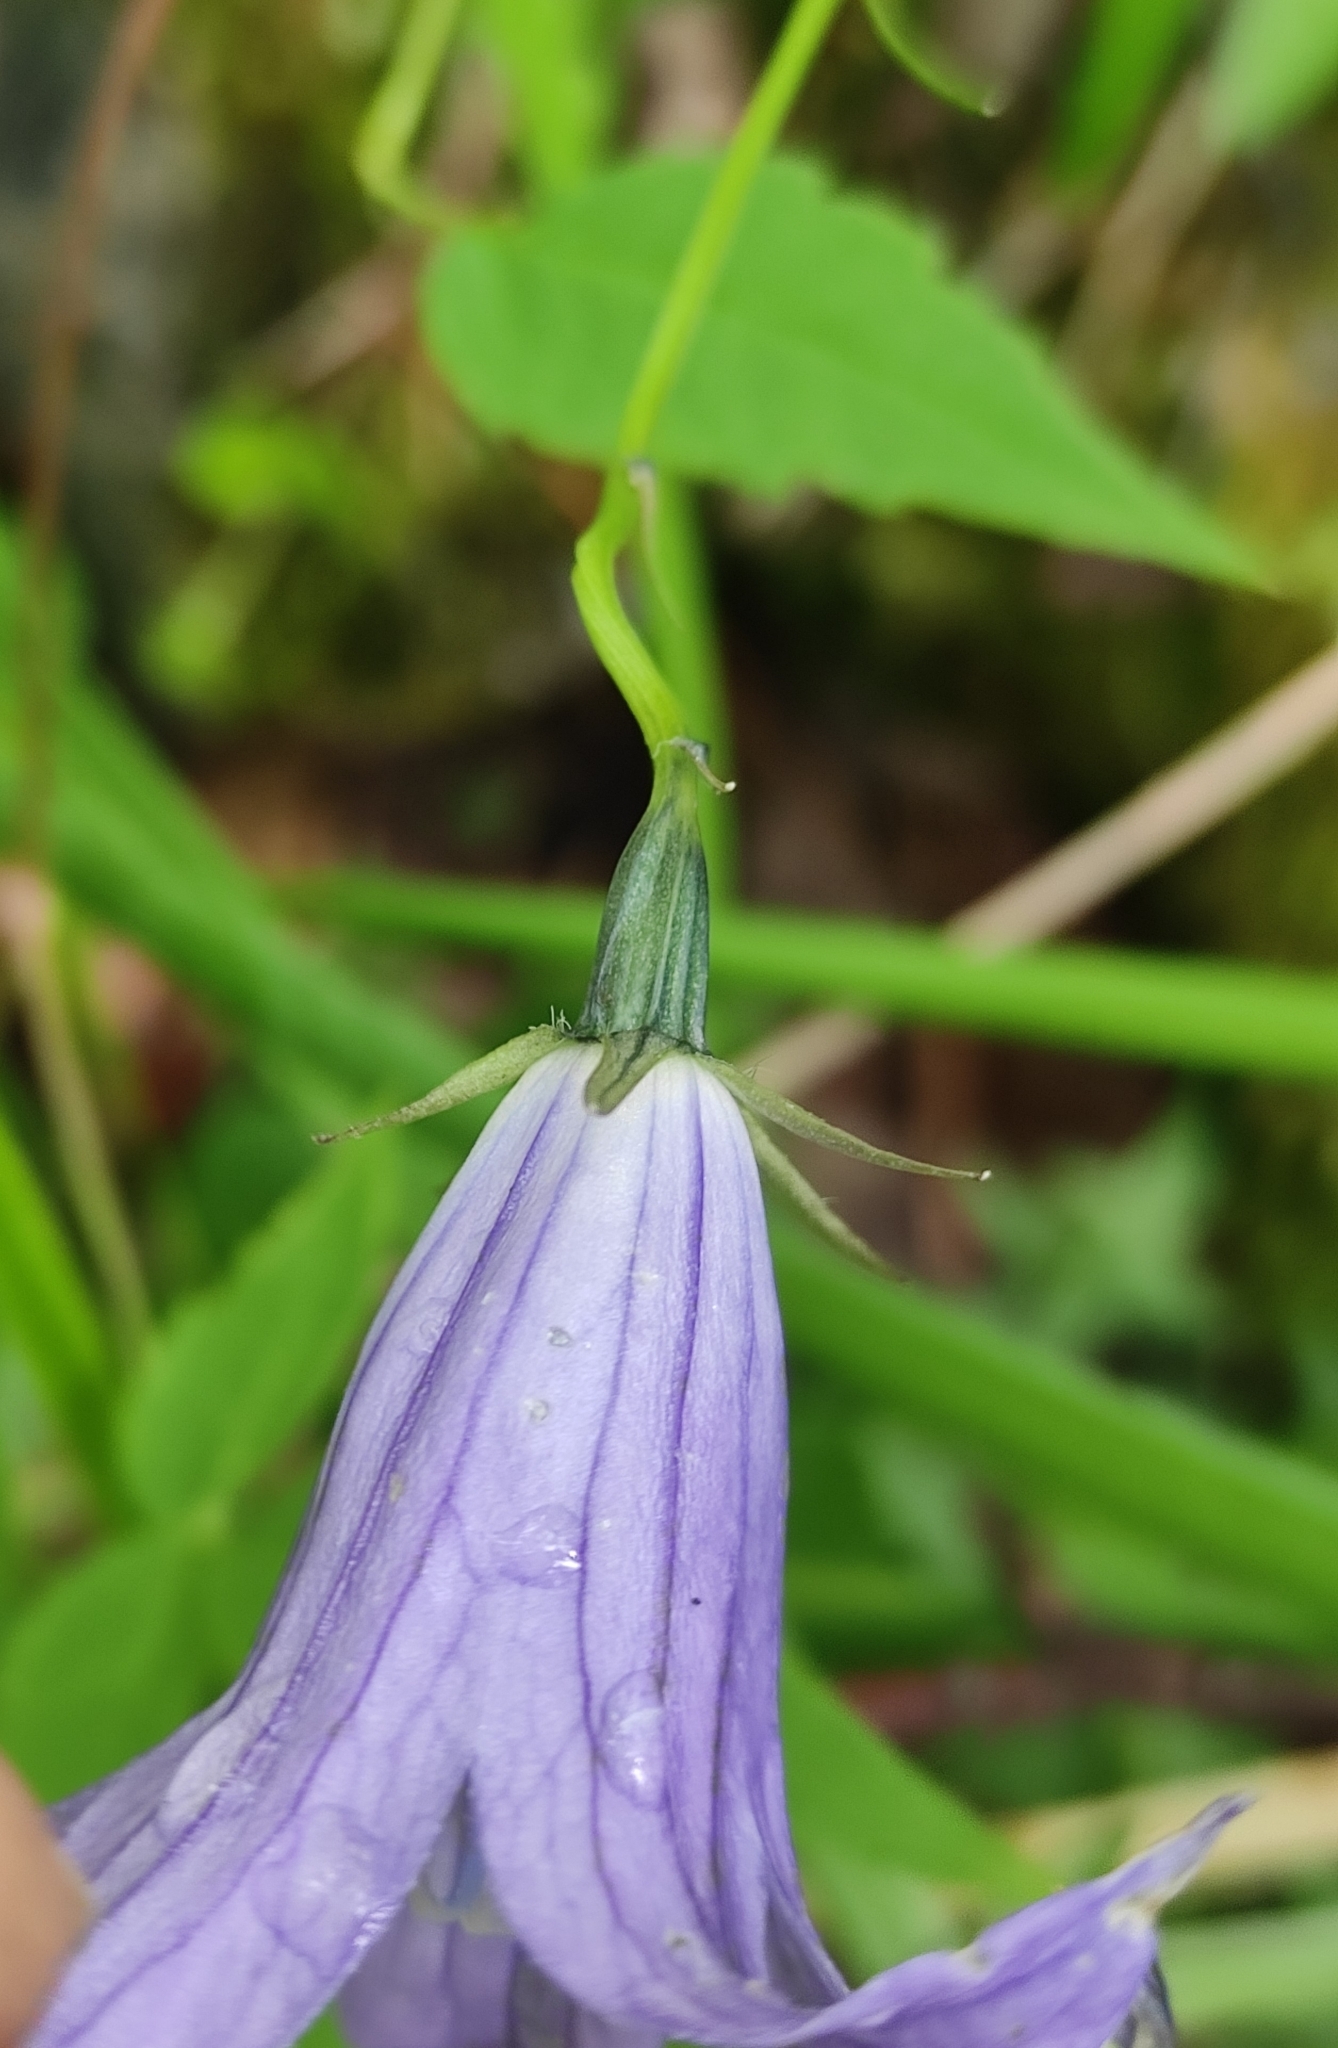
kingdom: Plantae
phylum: Tracheophyta
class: Magnoliopsida
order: Asterales
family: Campanulaceae
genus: Campanula
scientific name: Campanula stevenii
